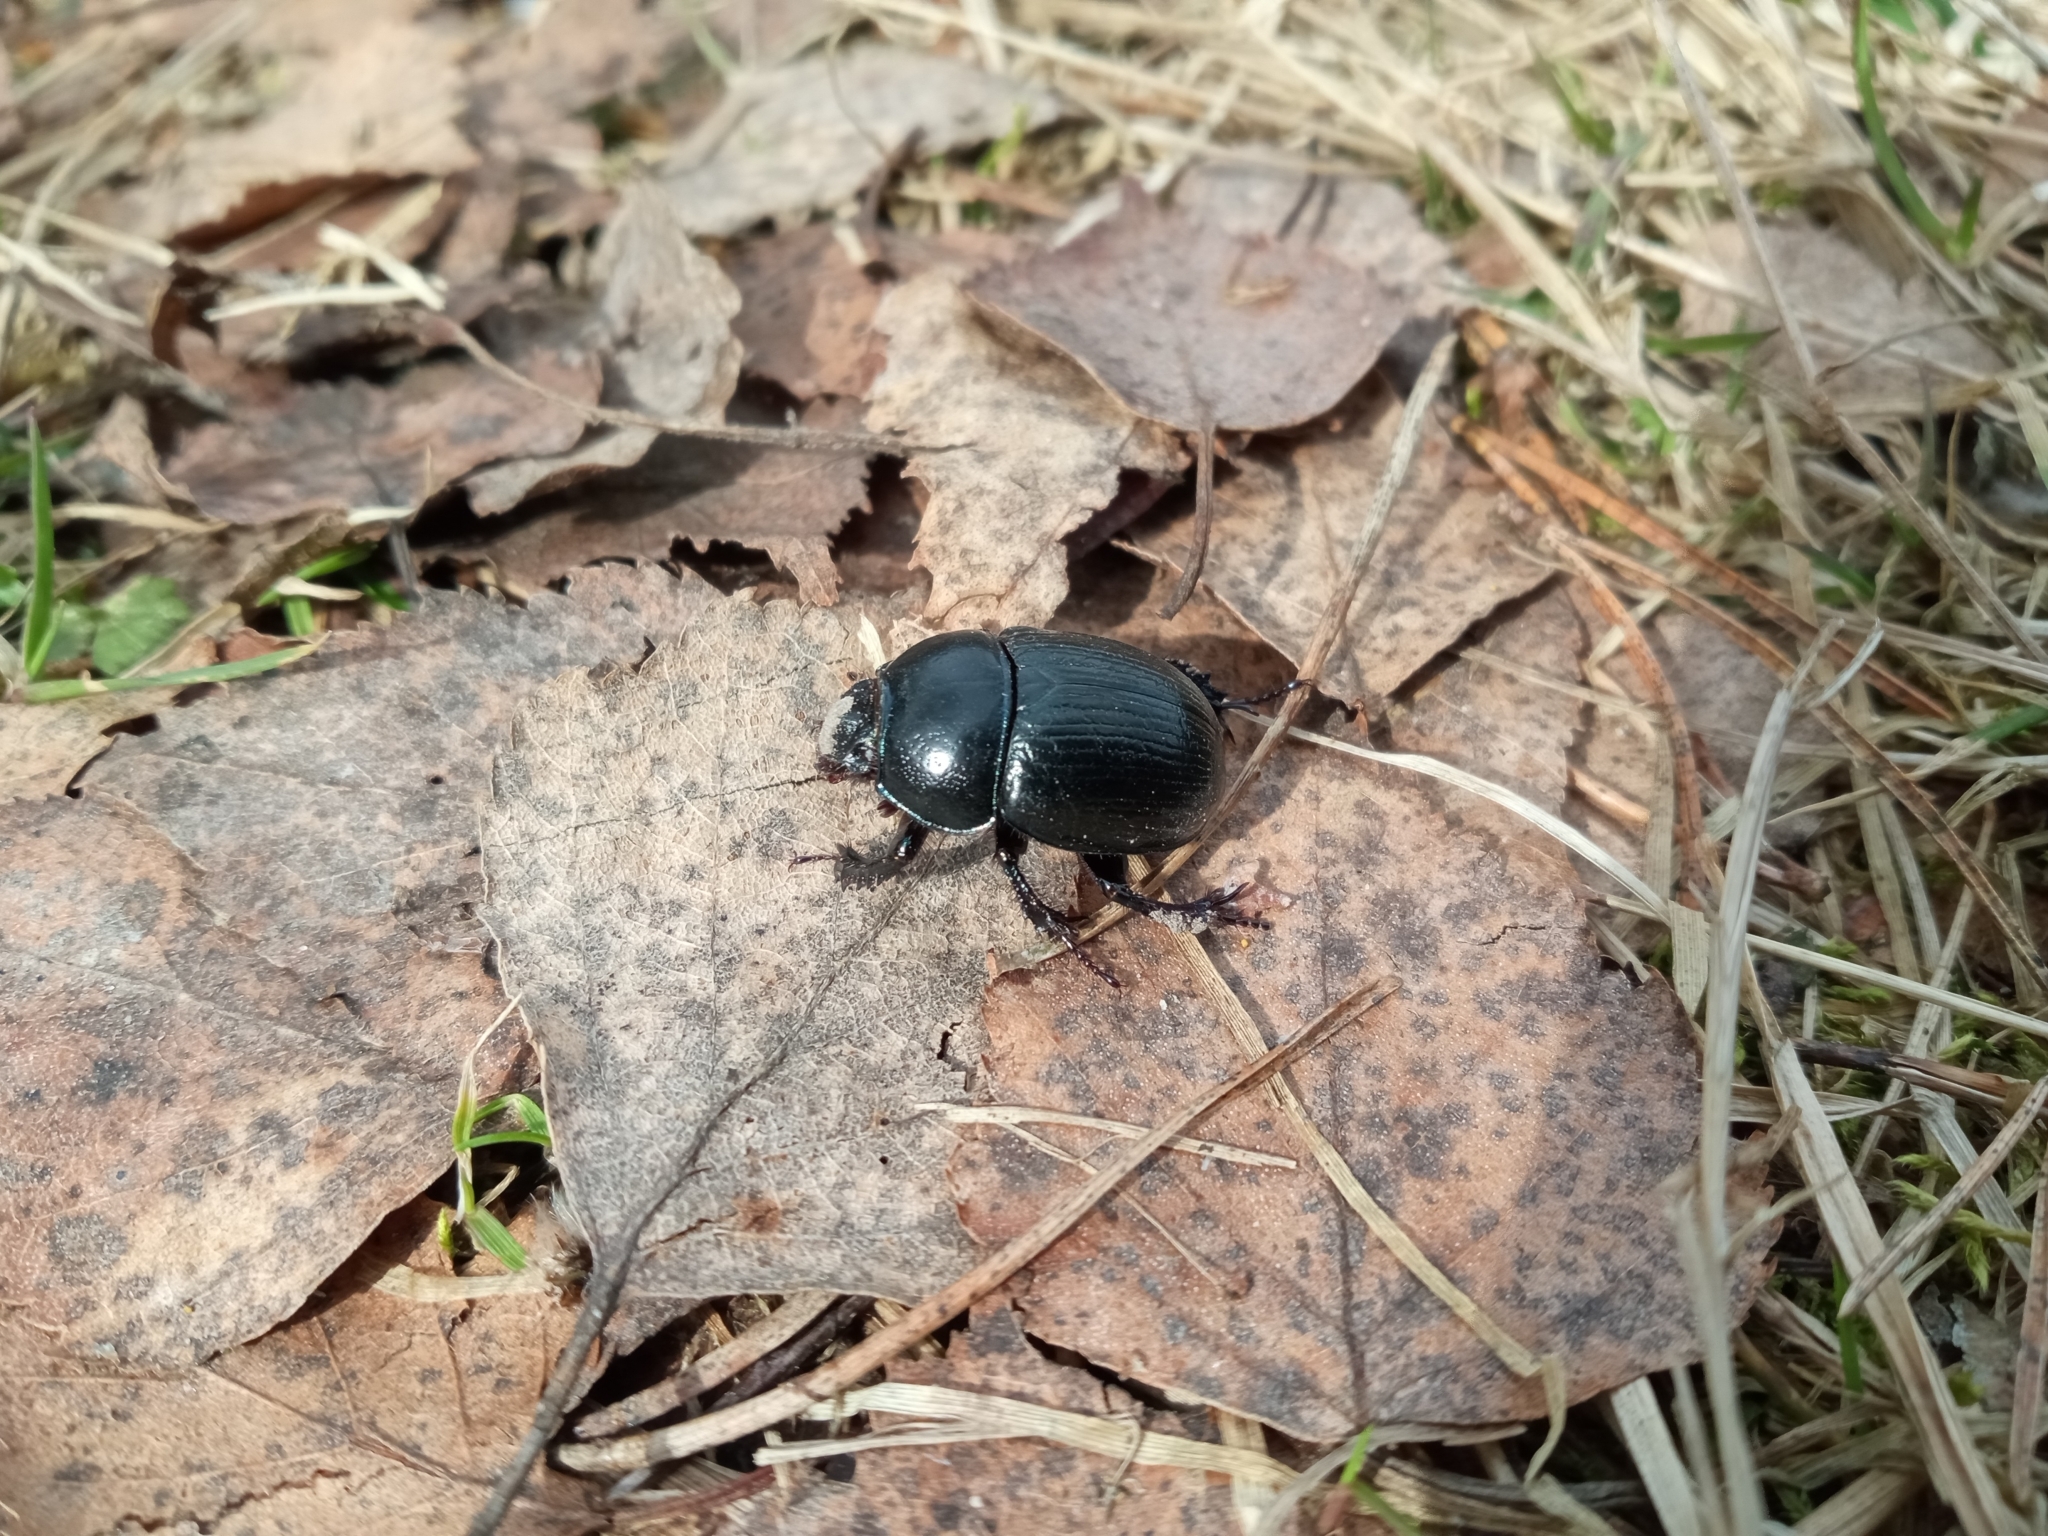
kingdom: Animalia
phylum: Arthropoda
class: Insecta
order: Coleoptera
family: Geotrupidae
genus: Anoplotrupes
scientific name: Anoplotrupes stercorosus
